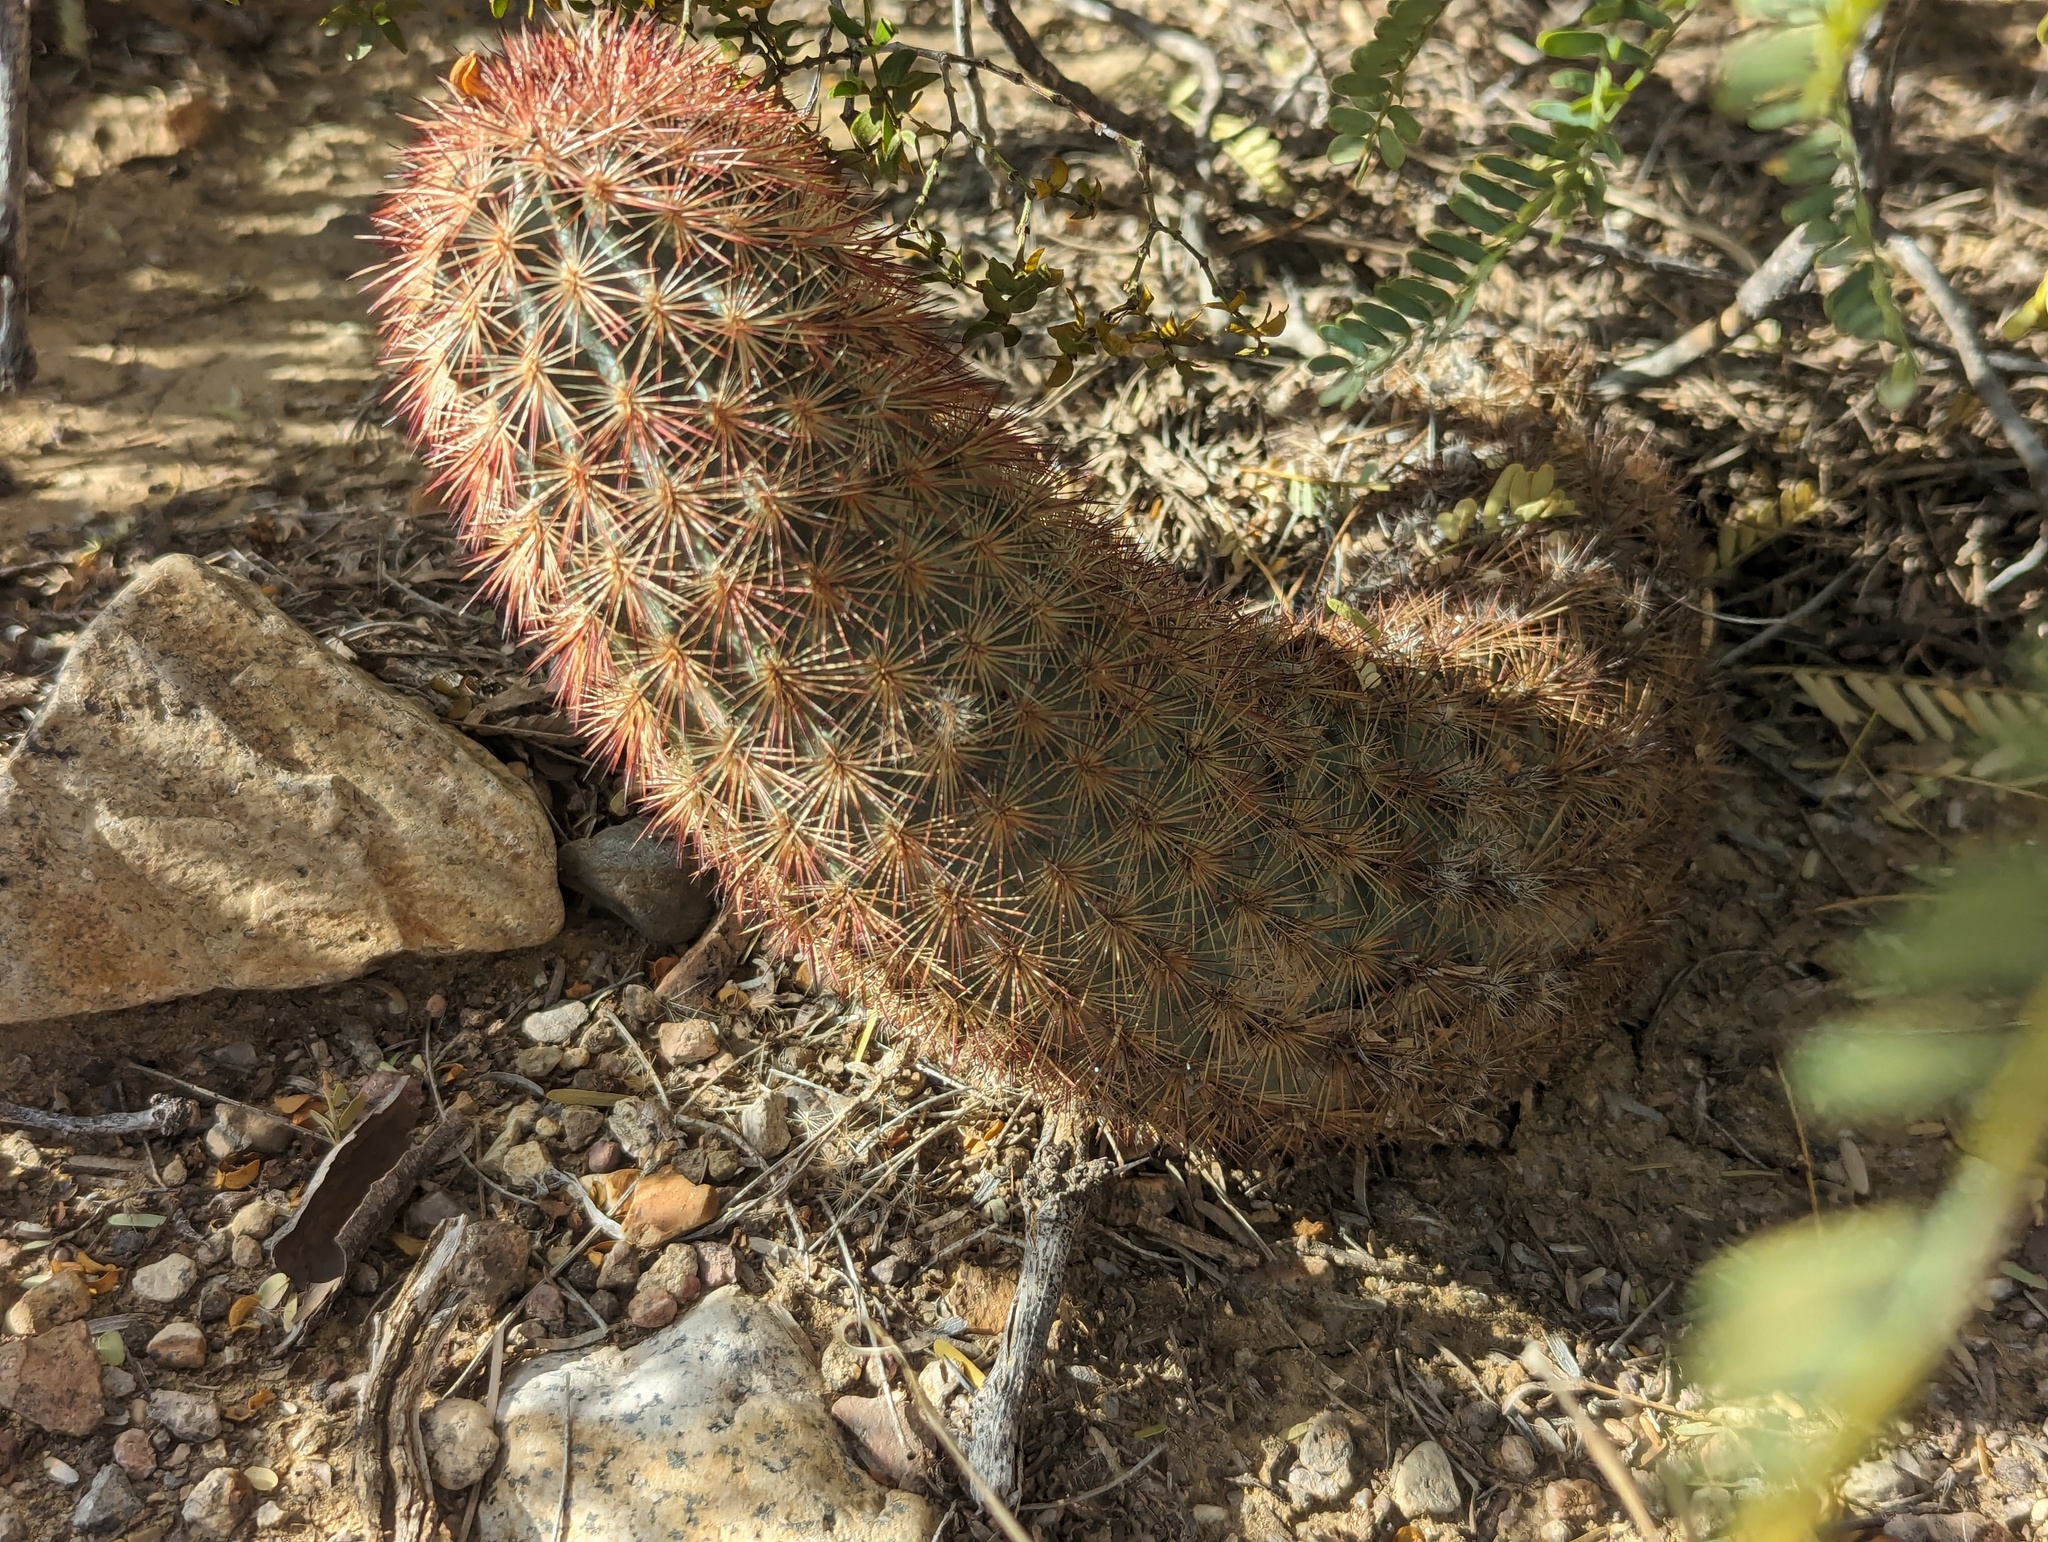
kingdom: Plantae
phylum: Tracheophyta
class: Magnoliopsida
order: Caryophyllales
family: Cactaceae
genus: Echinocereus
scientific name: Echinocereus dasyacanthus
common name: Spiny hedgehog cactus
